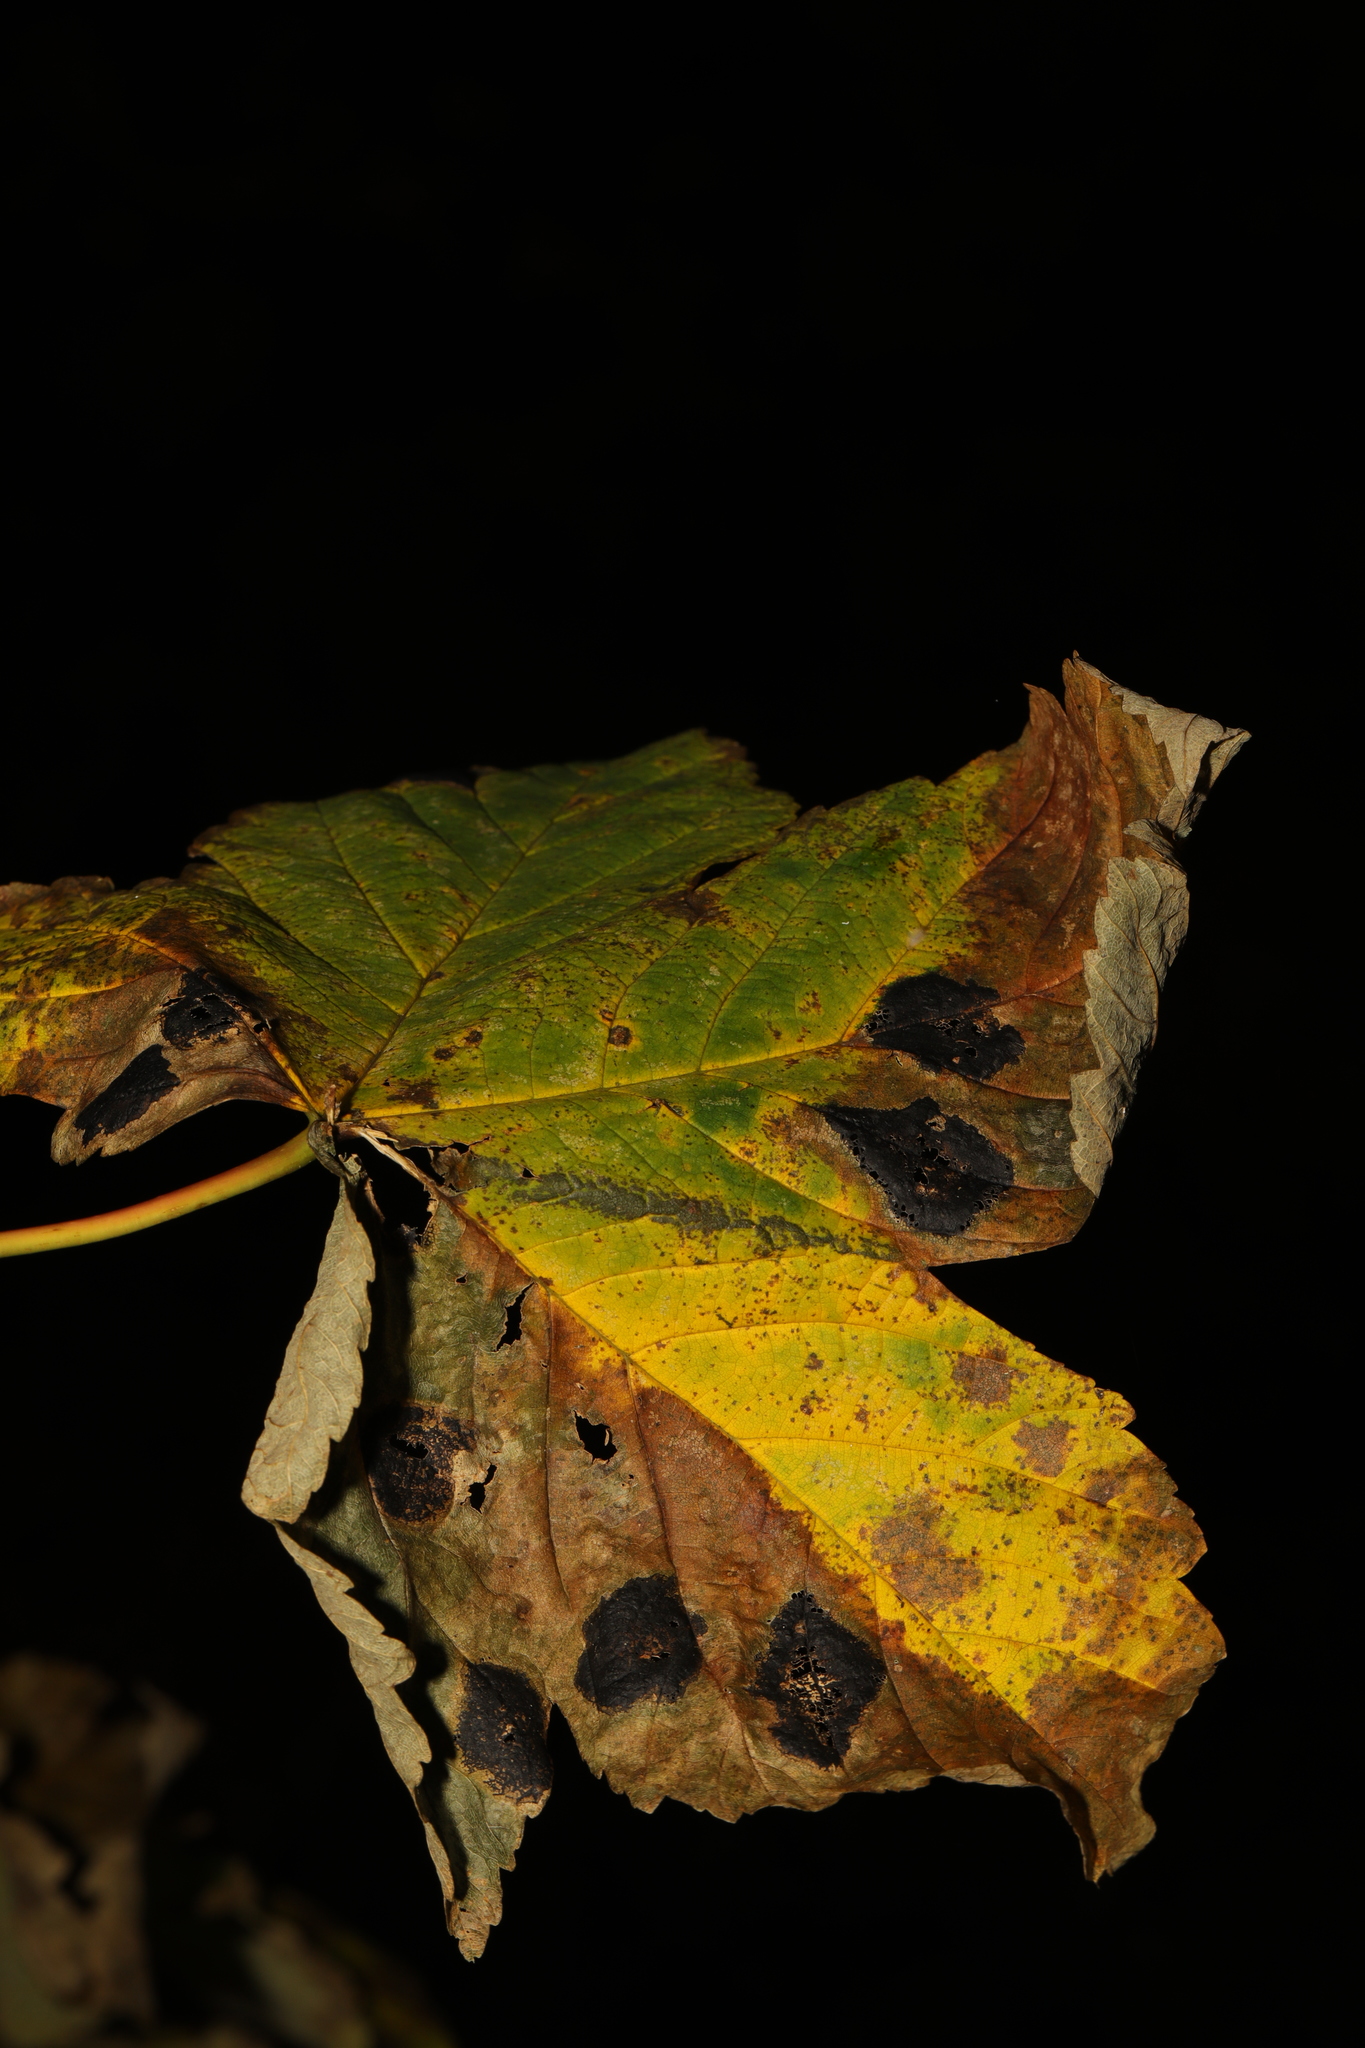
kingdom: Plantae
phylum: Tracheophyta
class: Magnoliopsida
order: Sapindales
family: Sapindaceae
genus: Acer
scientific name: Acer pseudoplatanus
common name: Sycamore
